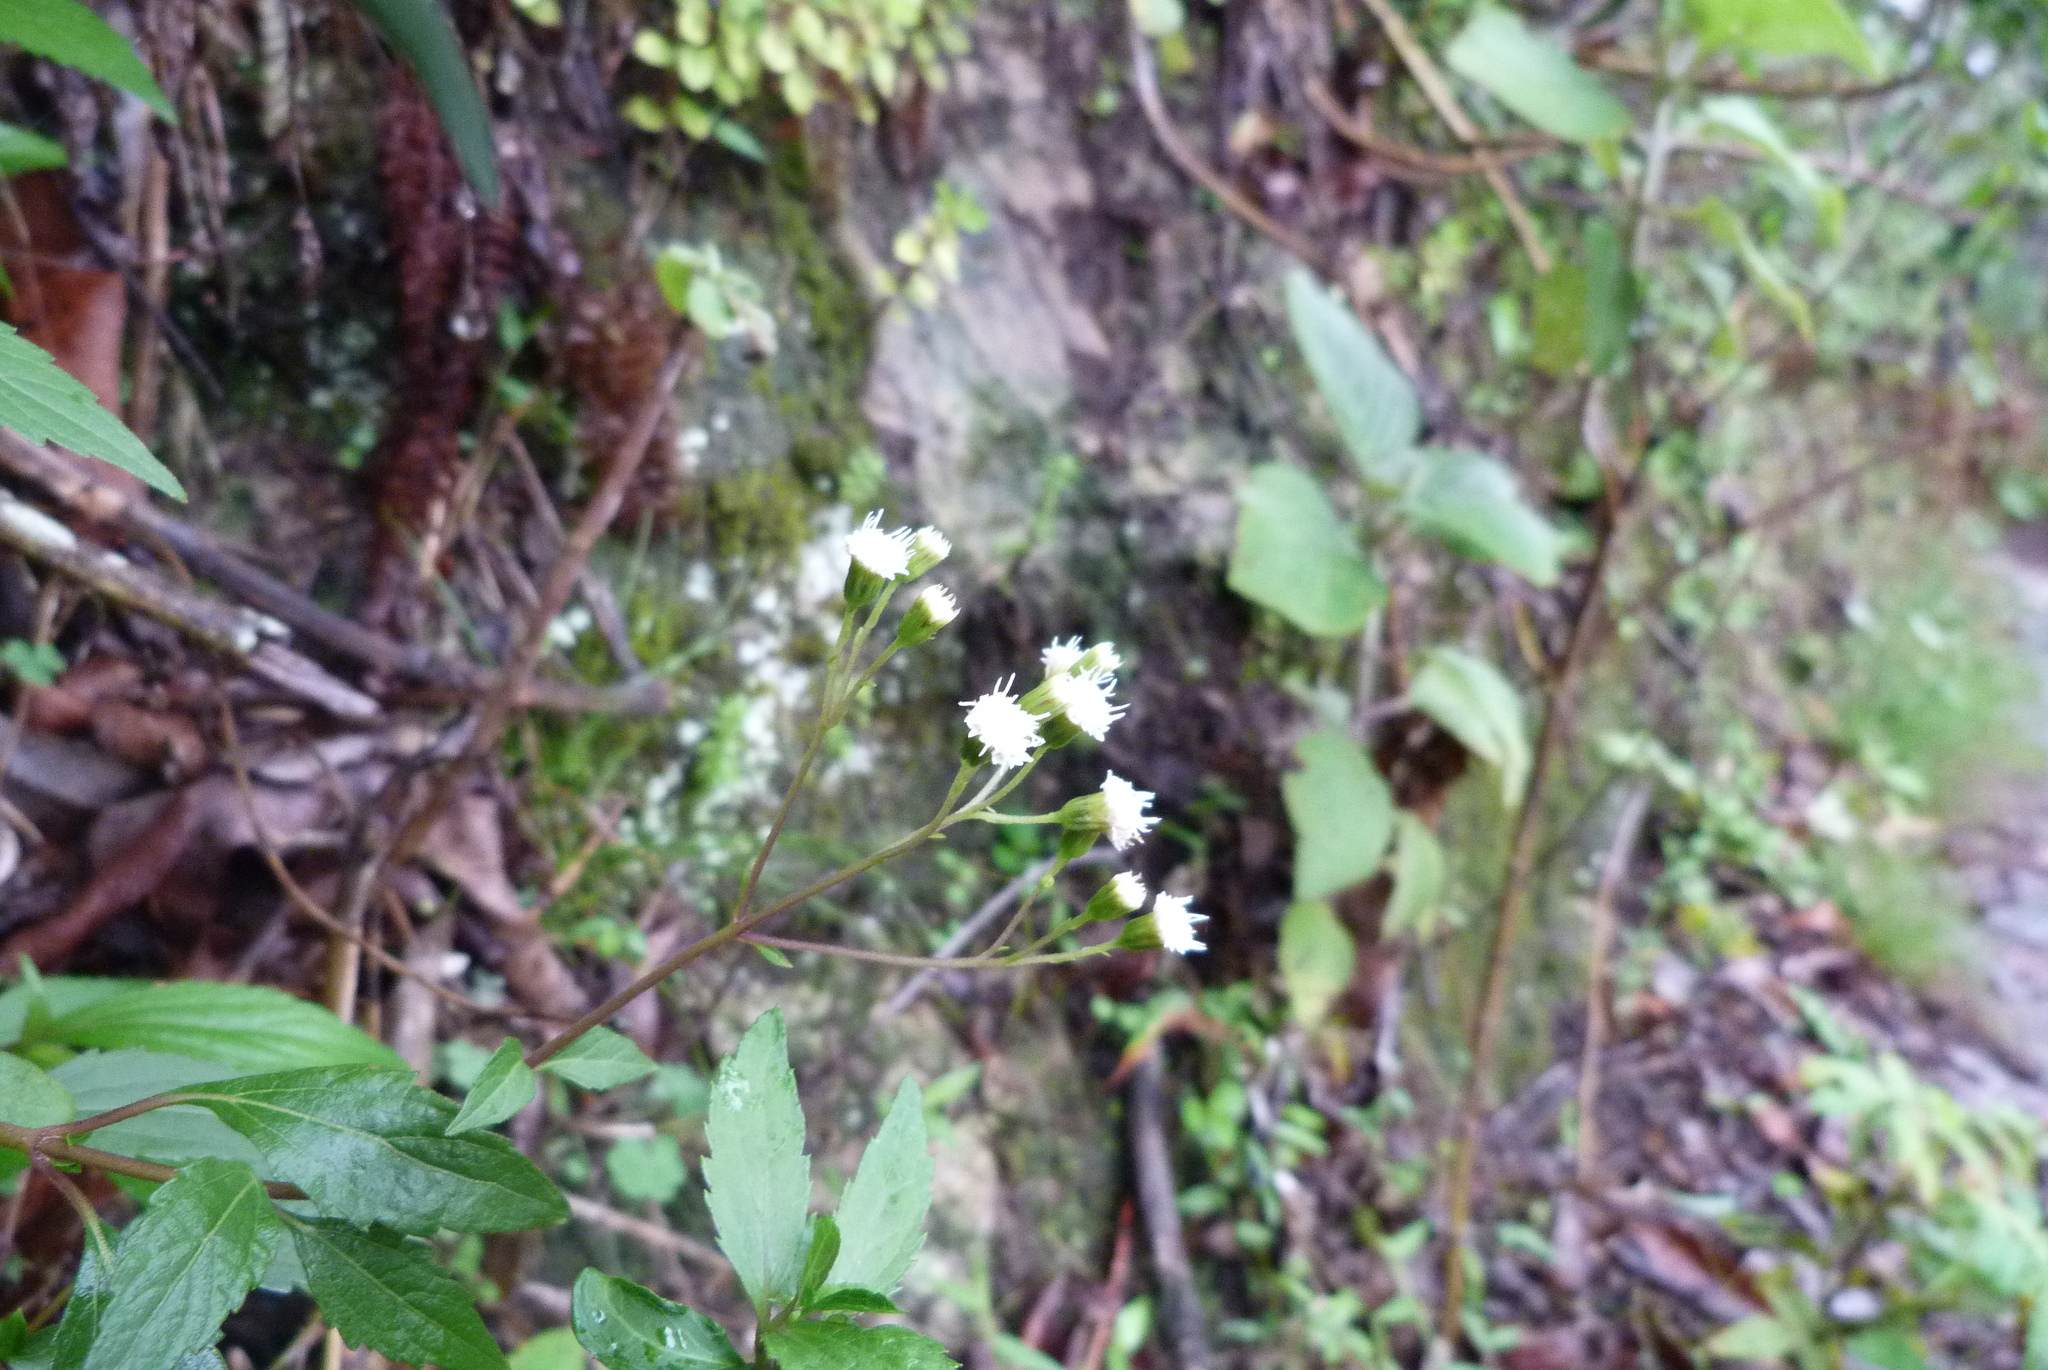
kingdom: Plantae
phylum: Tracheophyta
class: Magnoliopsida
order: Asterales
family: Asteraceae
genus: Ageratina
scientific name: Ageratina riparia
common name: Creeping croftonweed
